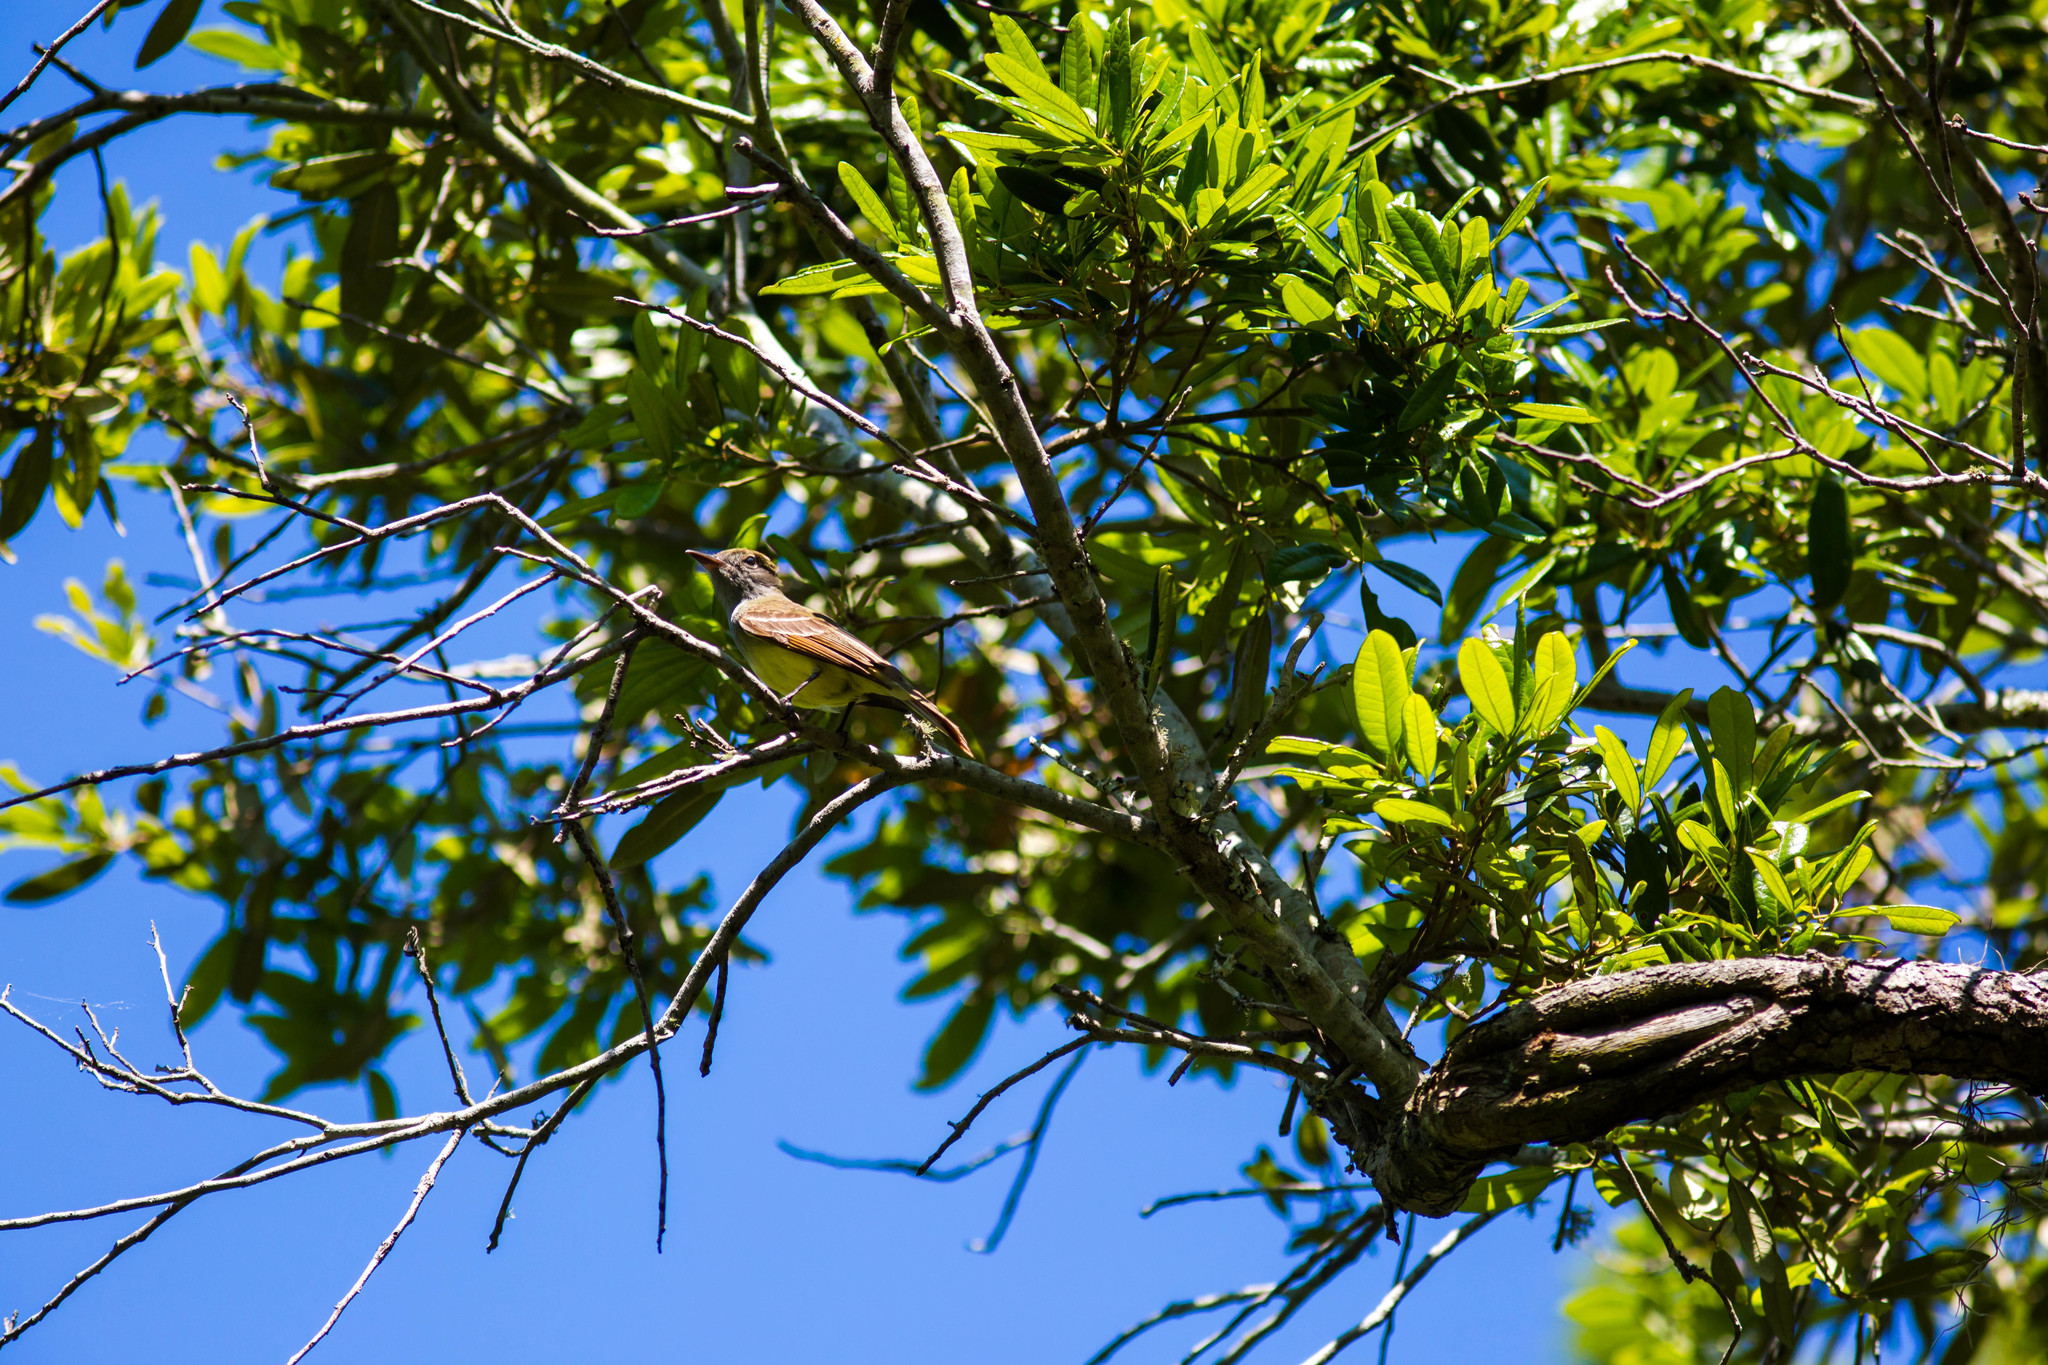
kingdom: Animalia
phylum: Chordata
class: Aves
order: Passeriformes
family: Tyrannidae
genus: Myiarchus
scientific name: Myiarchus crinitus
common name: Great crested flycatcher
